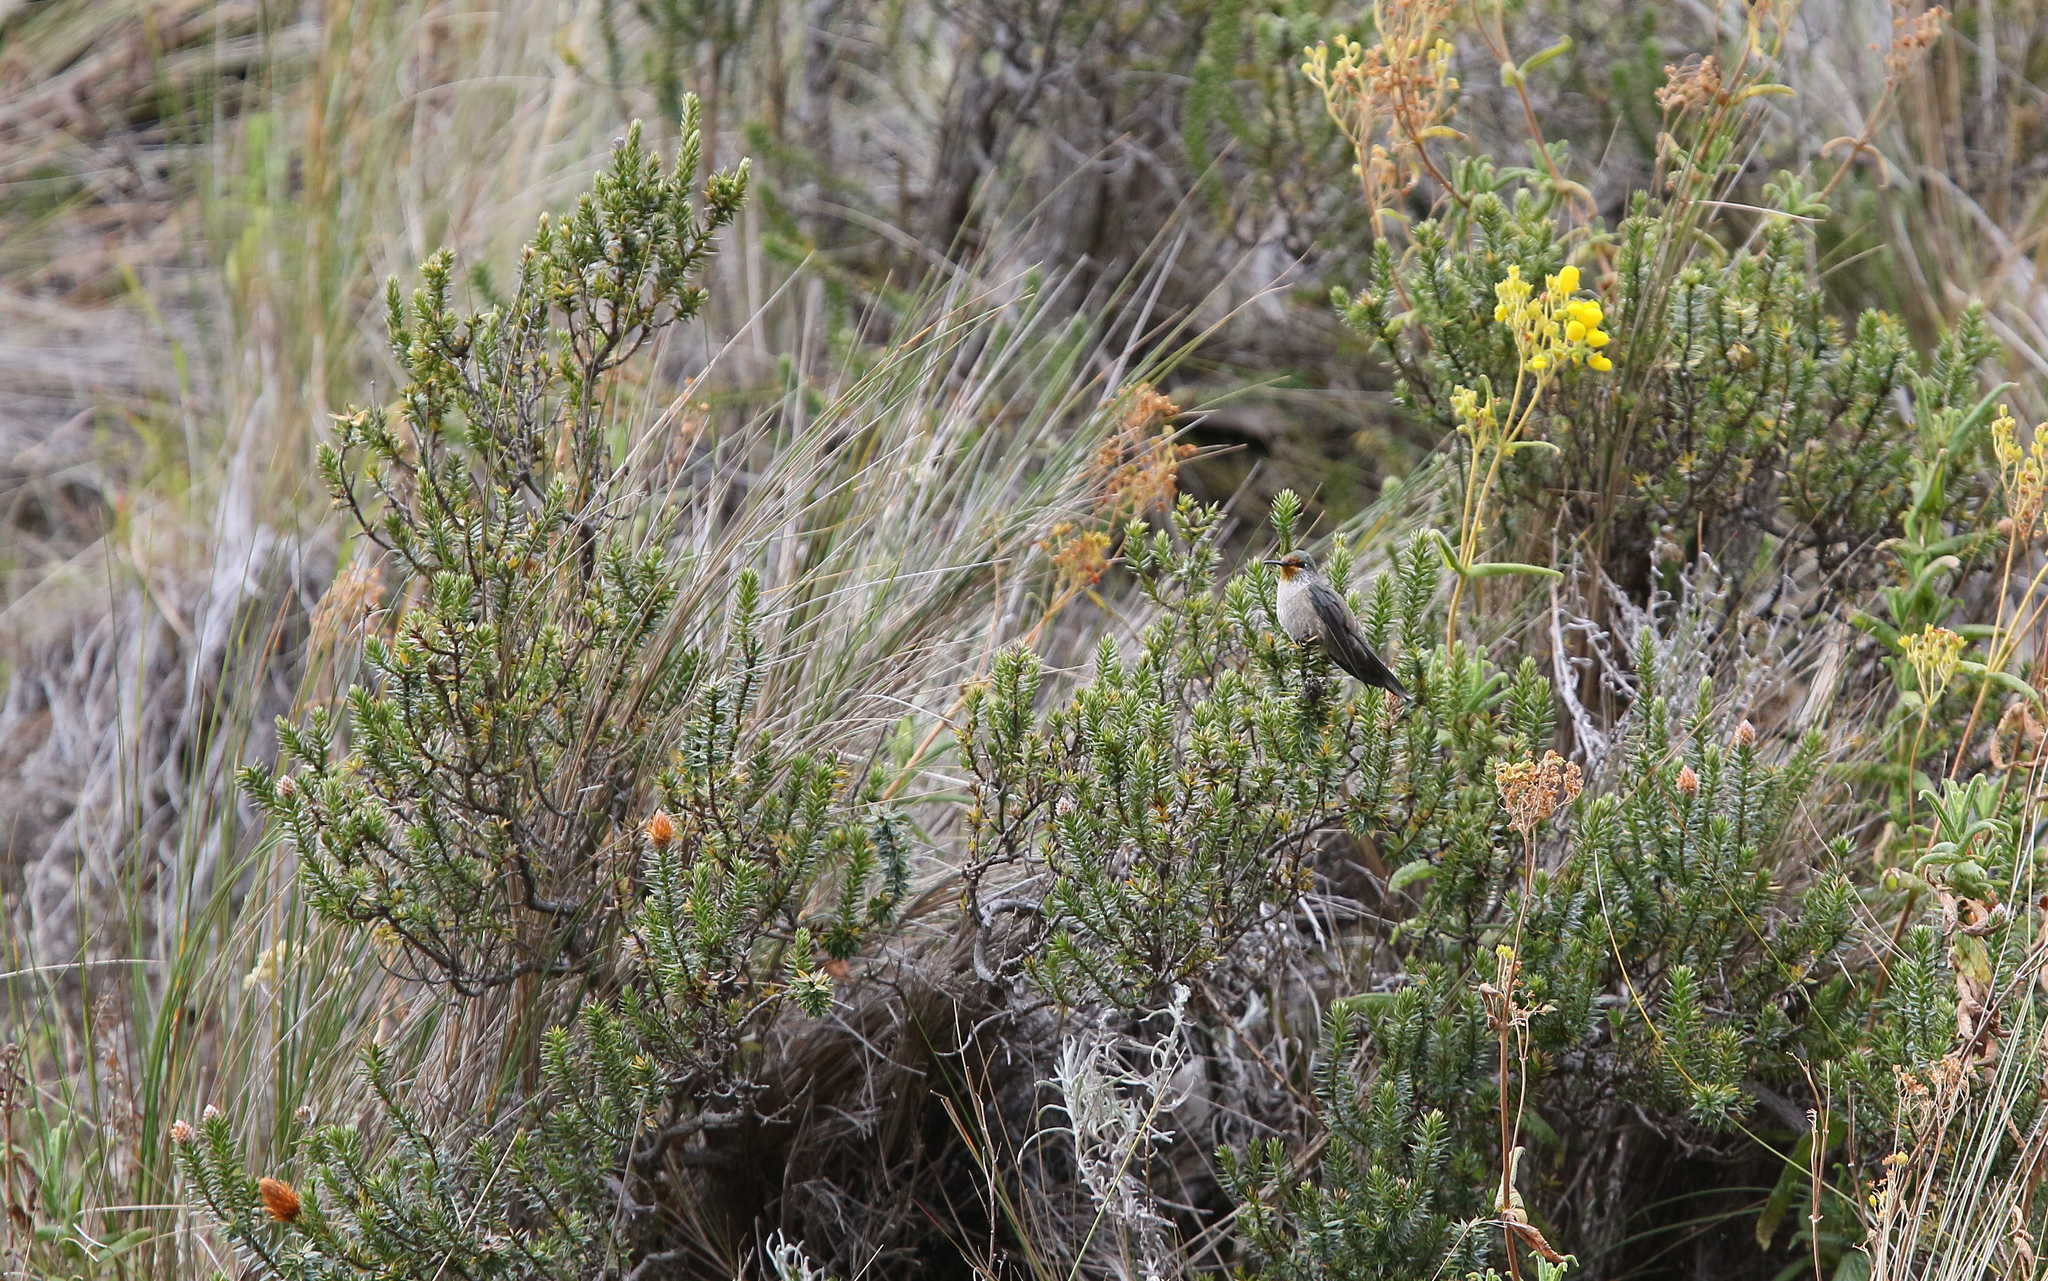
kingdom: Animalia
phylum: Chordata
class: Aves
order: Apodiformes
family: Trochilidae
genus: Oreotrochilus
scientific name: Oreotrochilus chimborazo
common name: Ecuadorian hillstar
